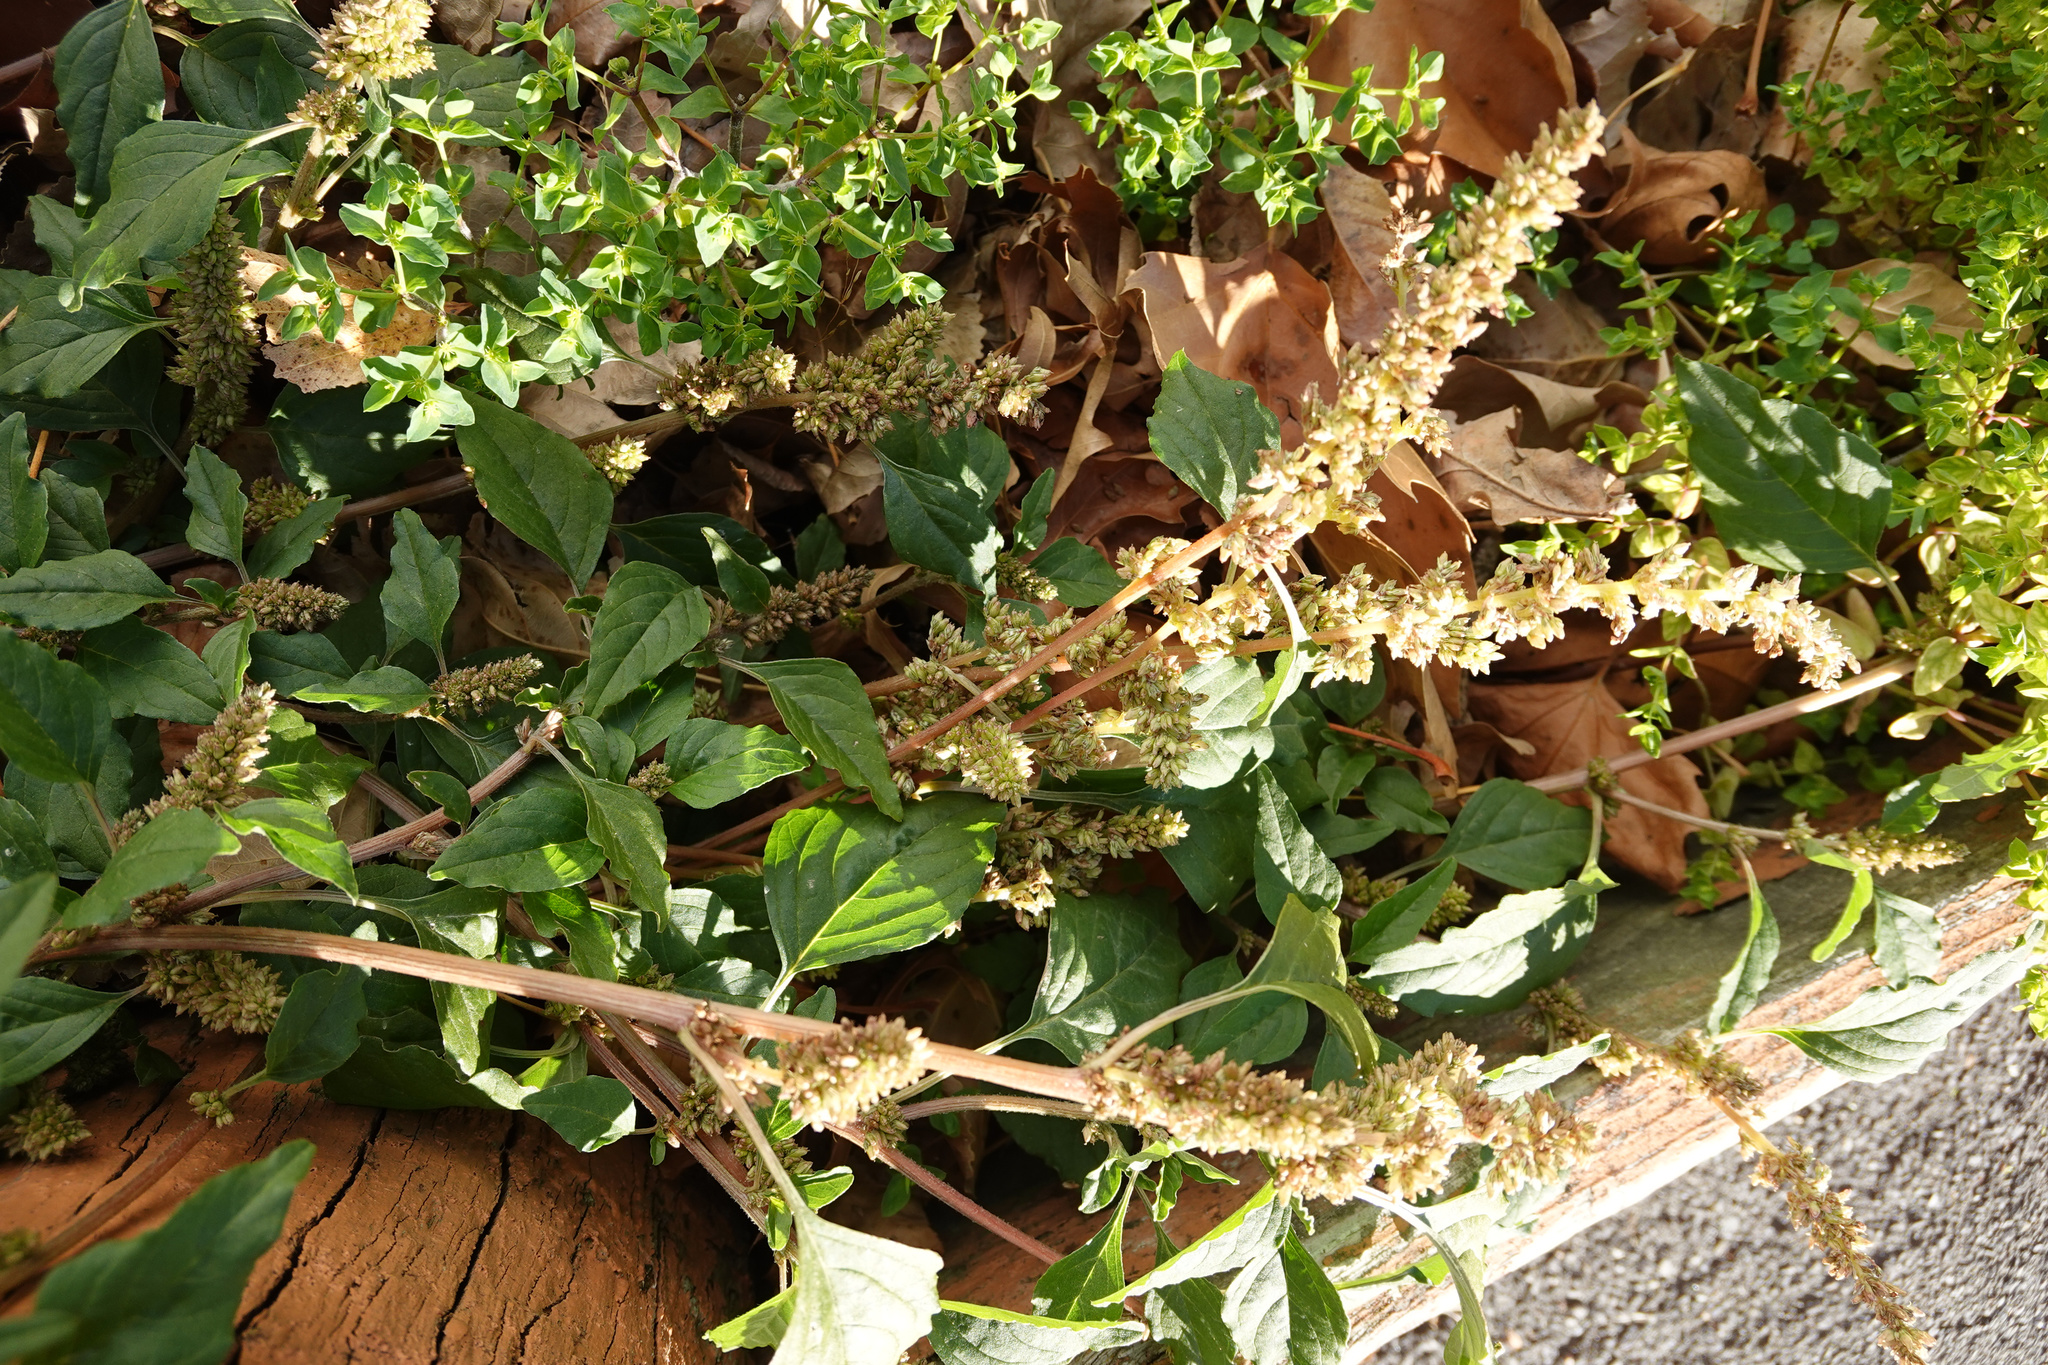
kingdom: Plantae
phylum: Tracheophyta
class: Magnoliopsida
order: Caryophyllales
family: Amaranthaceae
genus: Amaranthus
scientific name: Amaranthus deflexus
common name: Perennial pigweed
